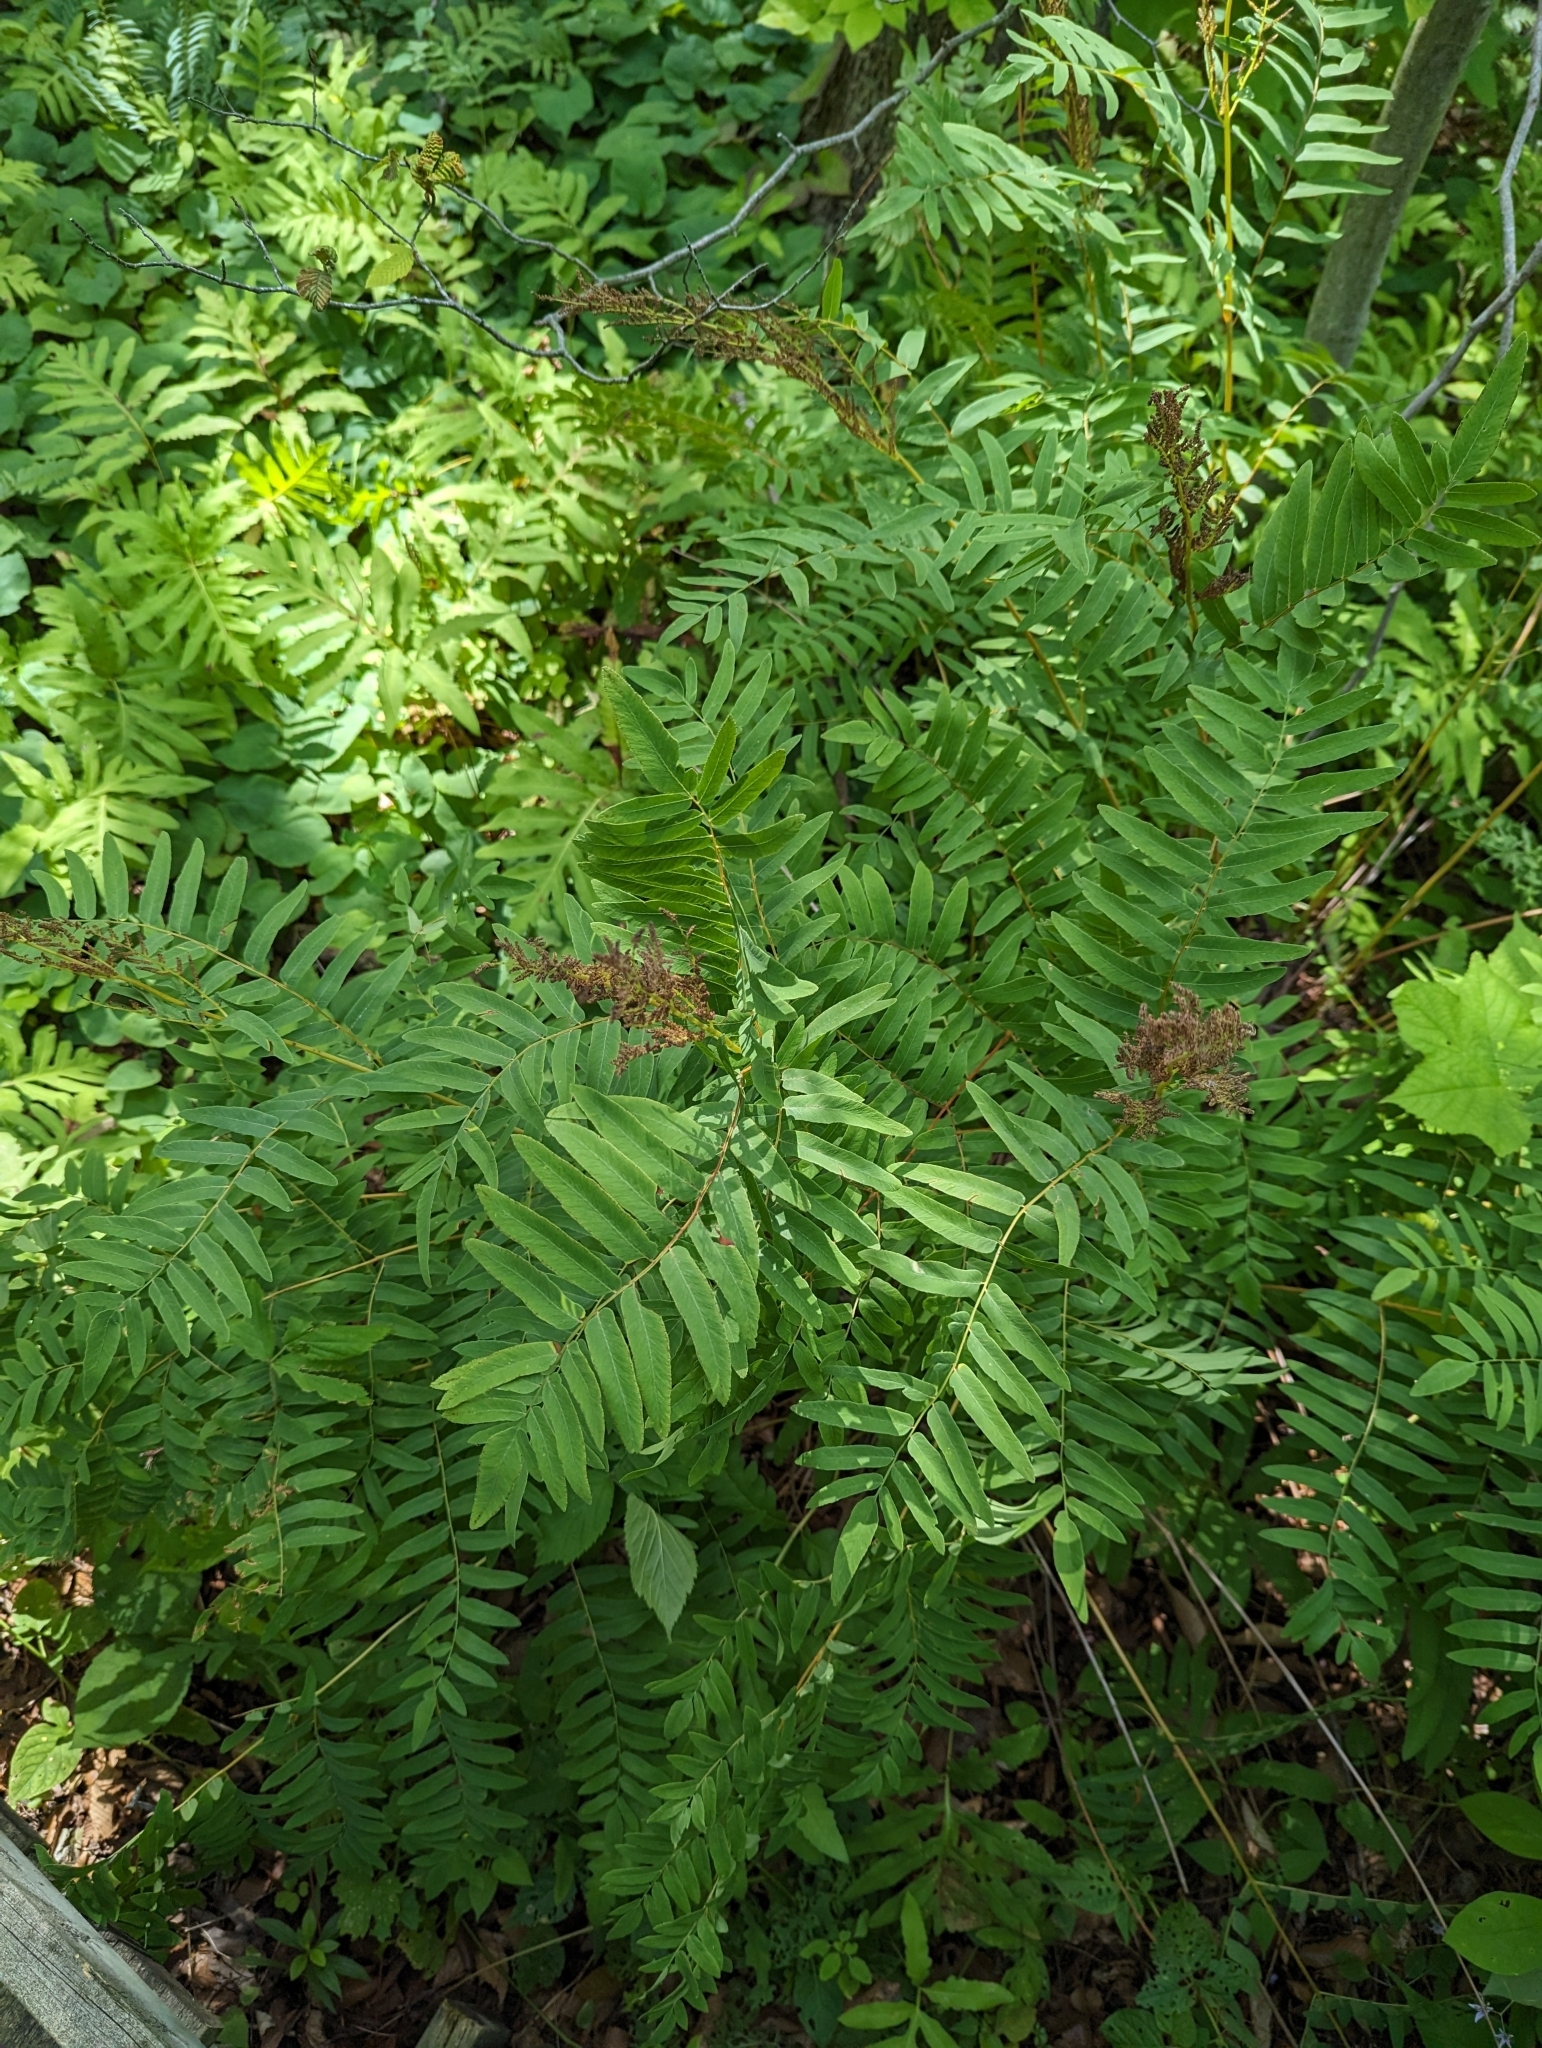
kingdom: Plantae
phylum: Tracheophyta
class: Polypodiopsida
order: Osmundales
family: Osmundaceae
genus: Osmunda
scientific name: Osmunda spectabilis
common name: American royal fern
